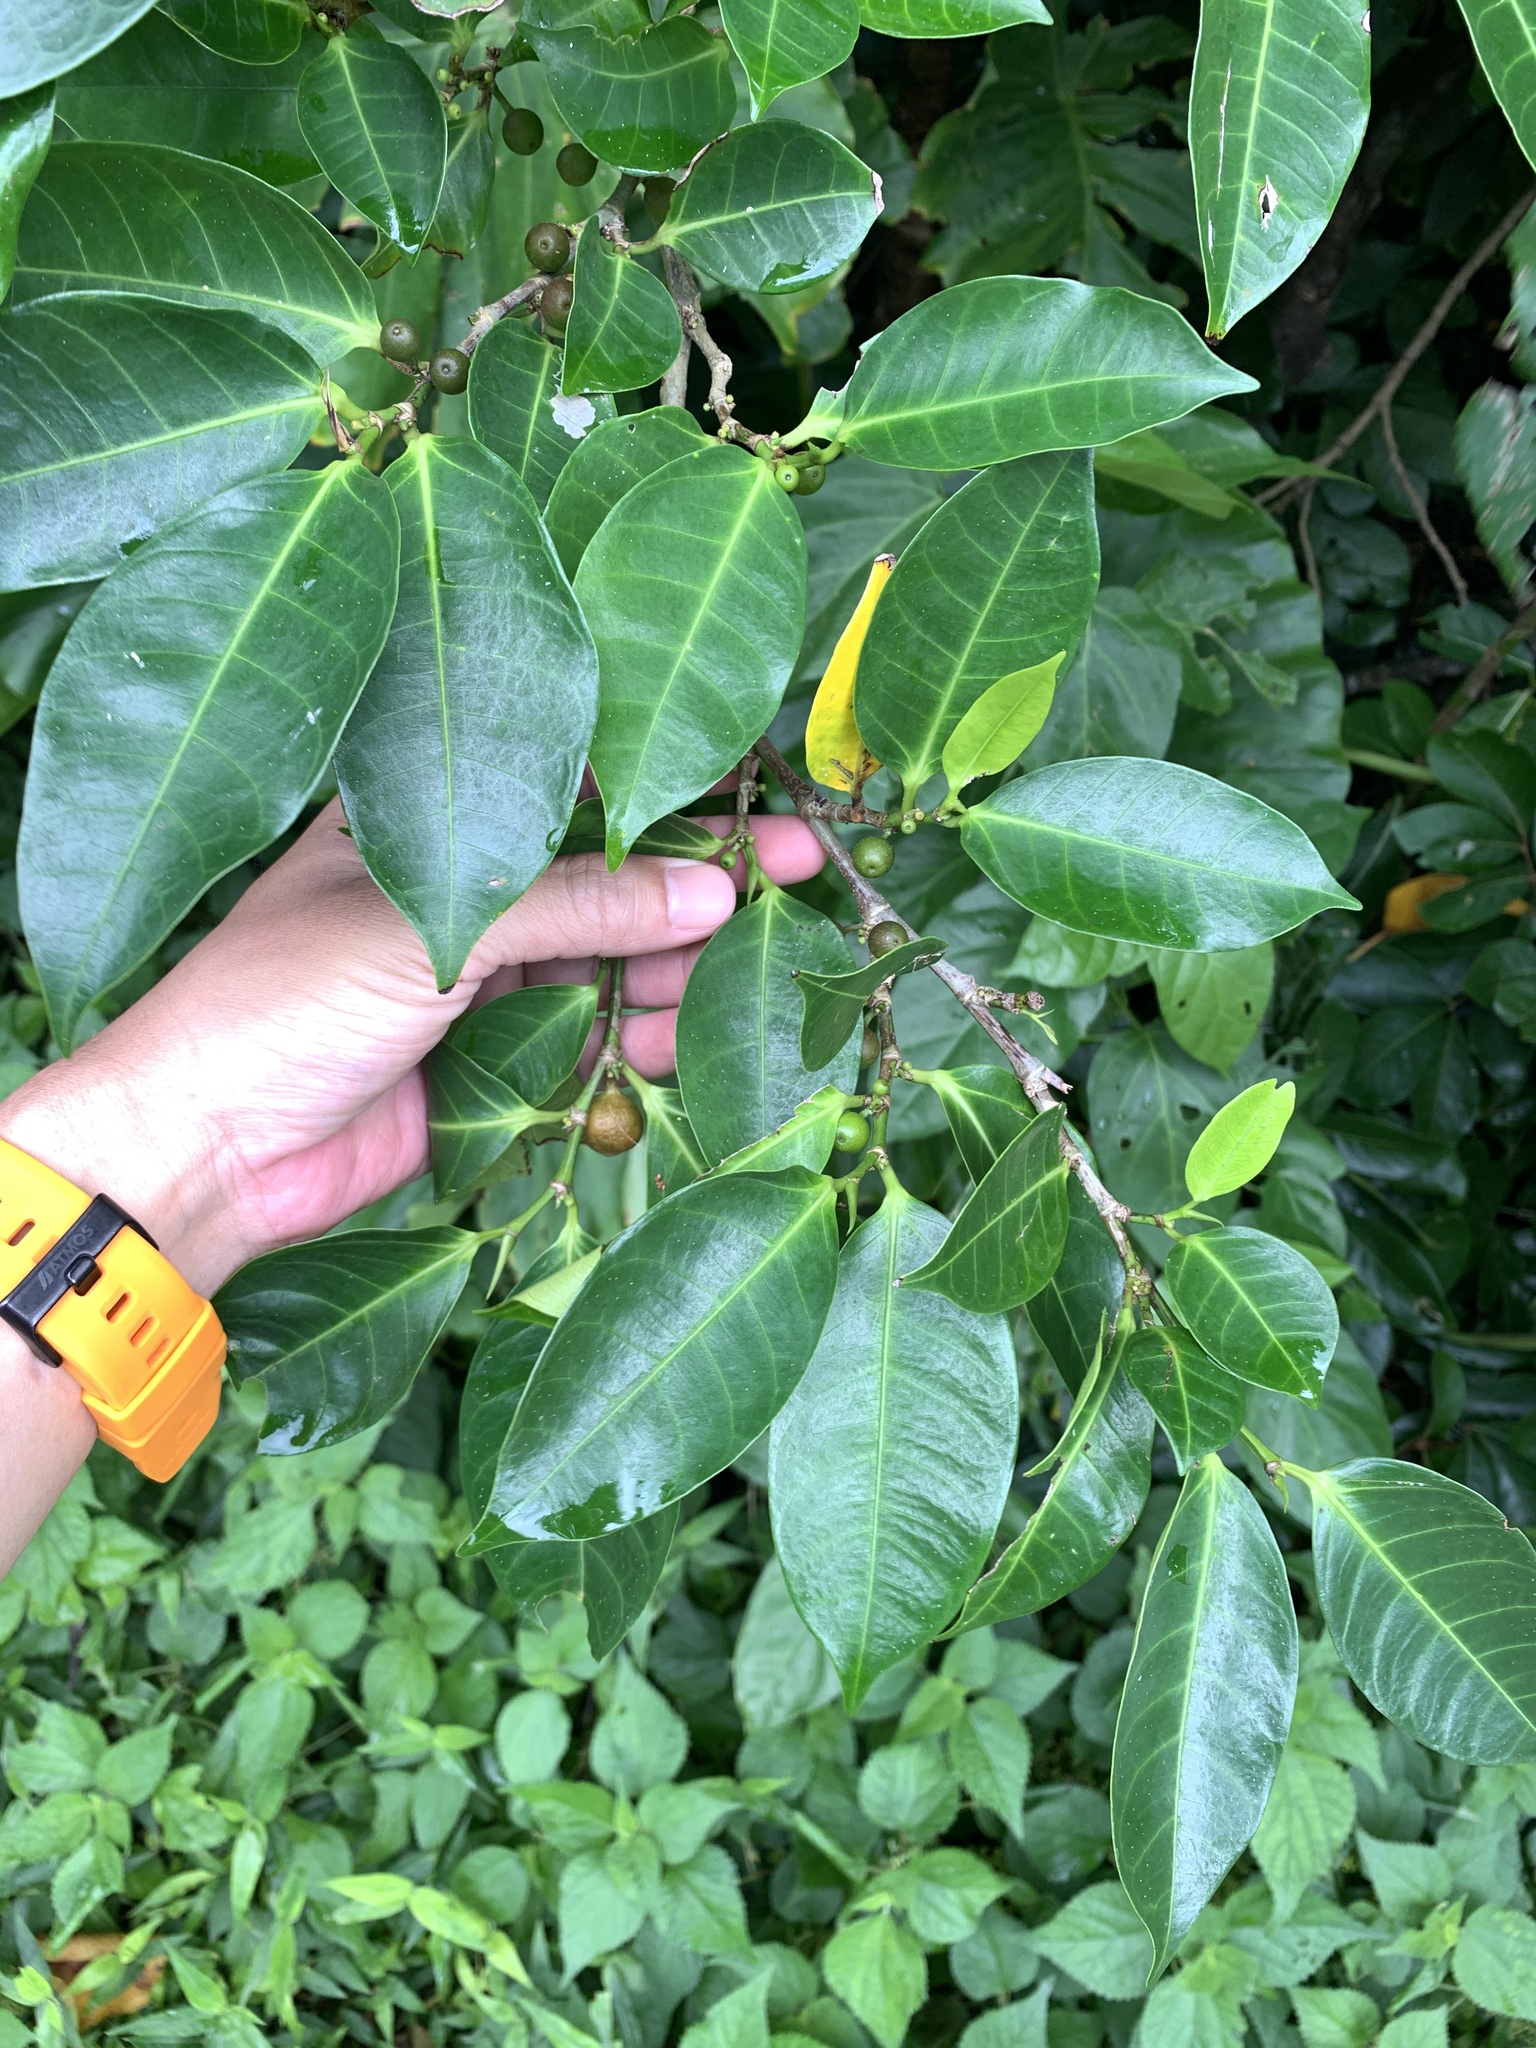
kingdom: Plantae
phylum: Tracheophyta
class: Magnoliopsida
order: Rosales
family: Moraceae
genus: Ficus
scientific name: Ficus virgata
